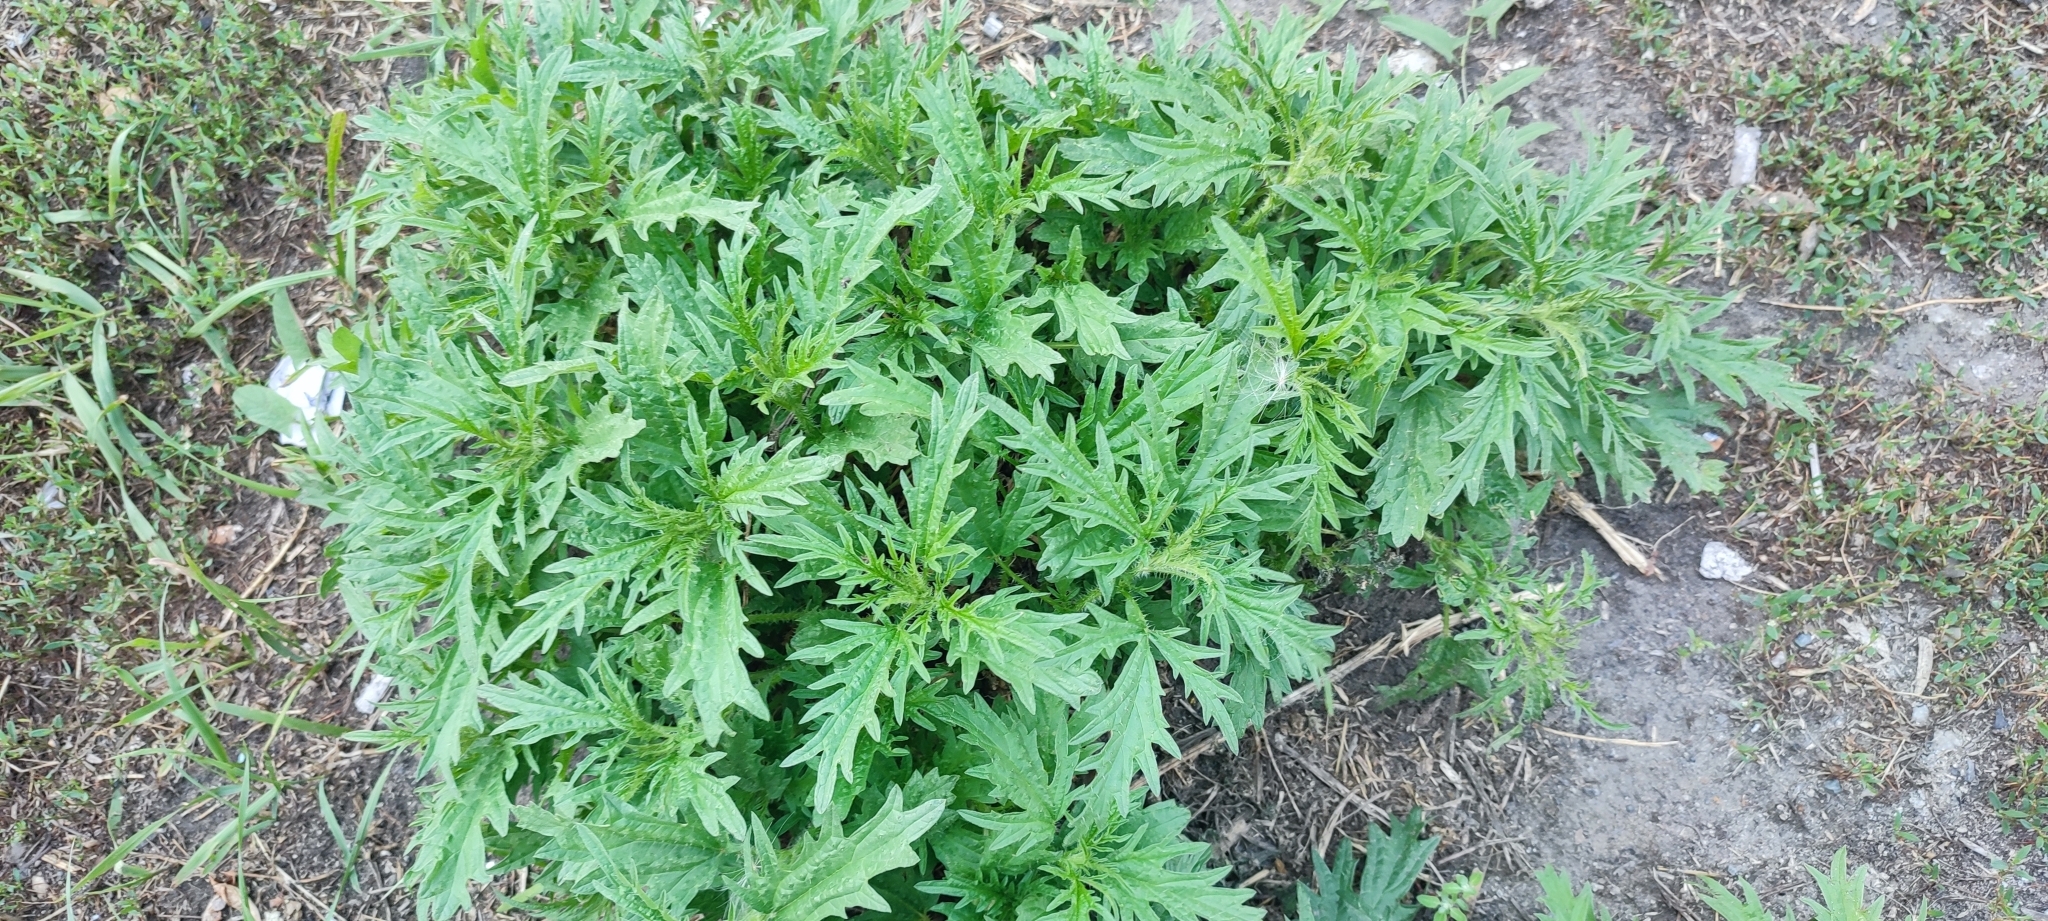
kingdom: Plantae
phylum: Tracheophyta
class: Magnoliopsida
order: Rosales
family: Urticaceae
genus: Urtica
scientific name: Urtica cannabina
